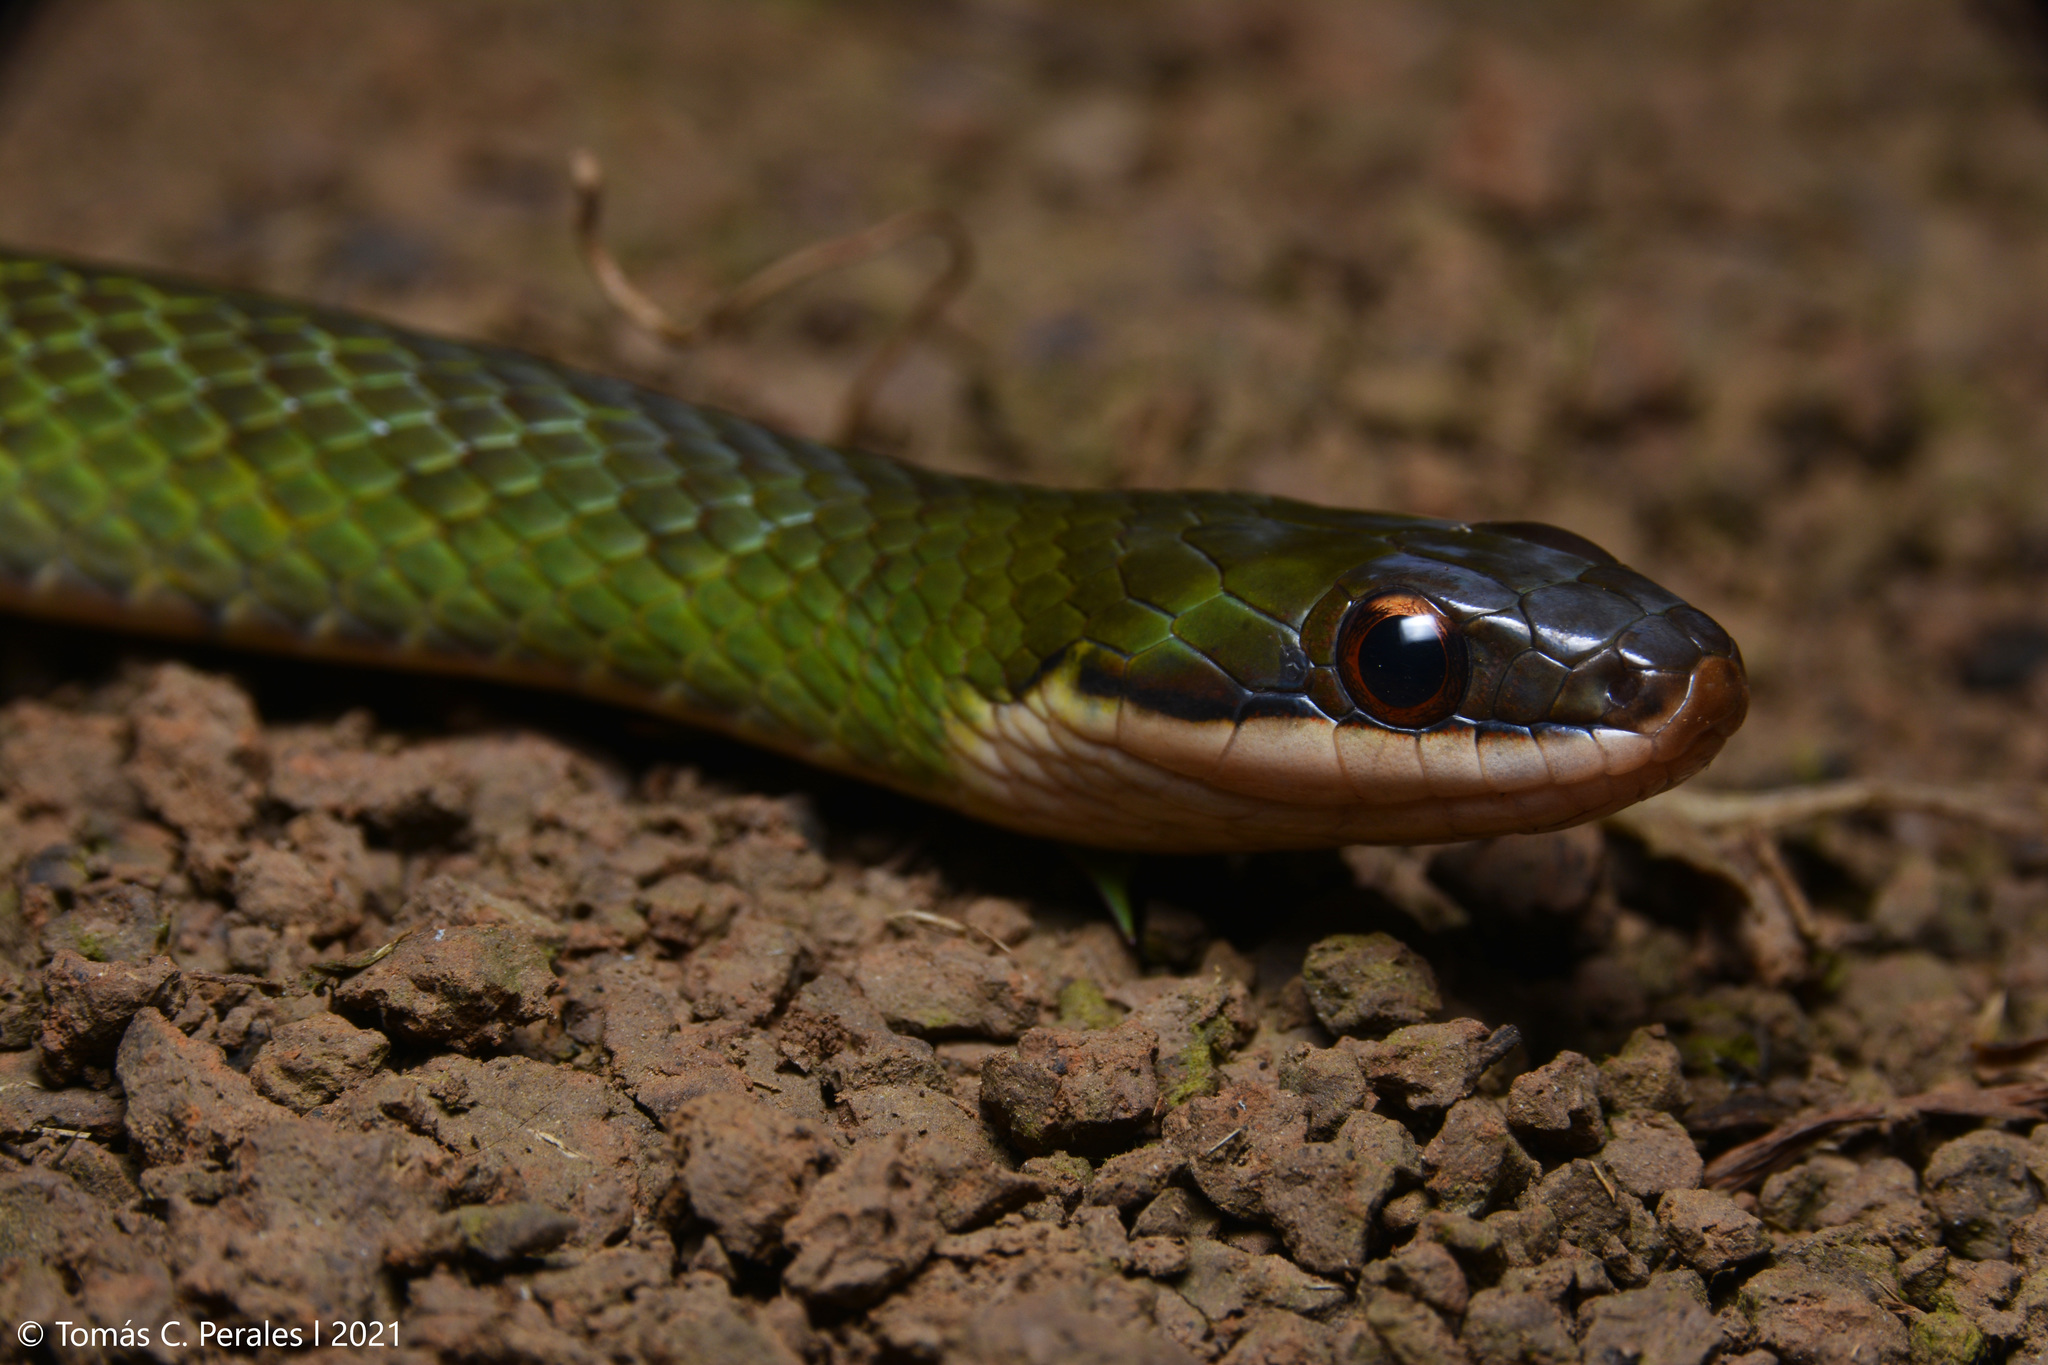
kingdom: Animalia
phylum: Chordata
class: Squamata
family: Colubridae
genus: Erythrolamprus
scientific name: Erythrolamprus macrosomus
